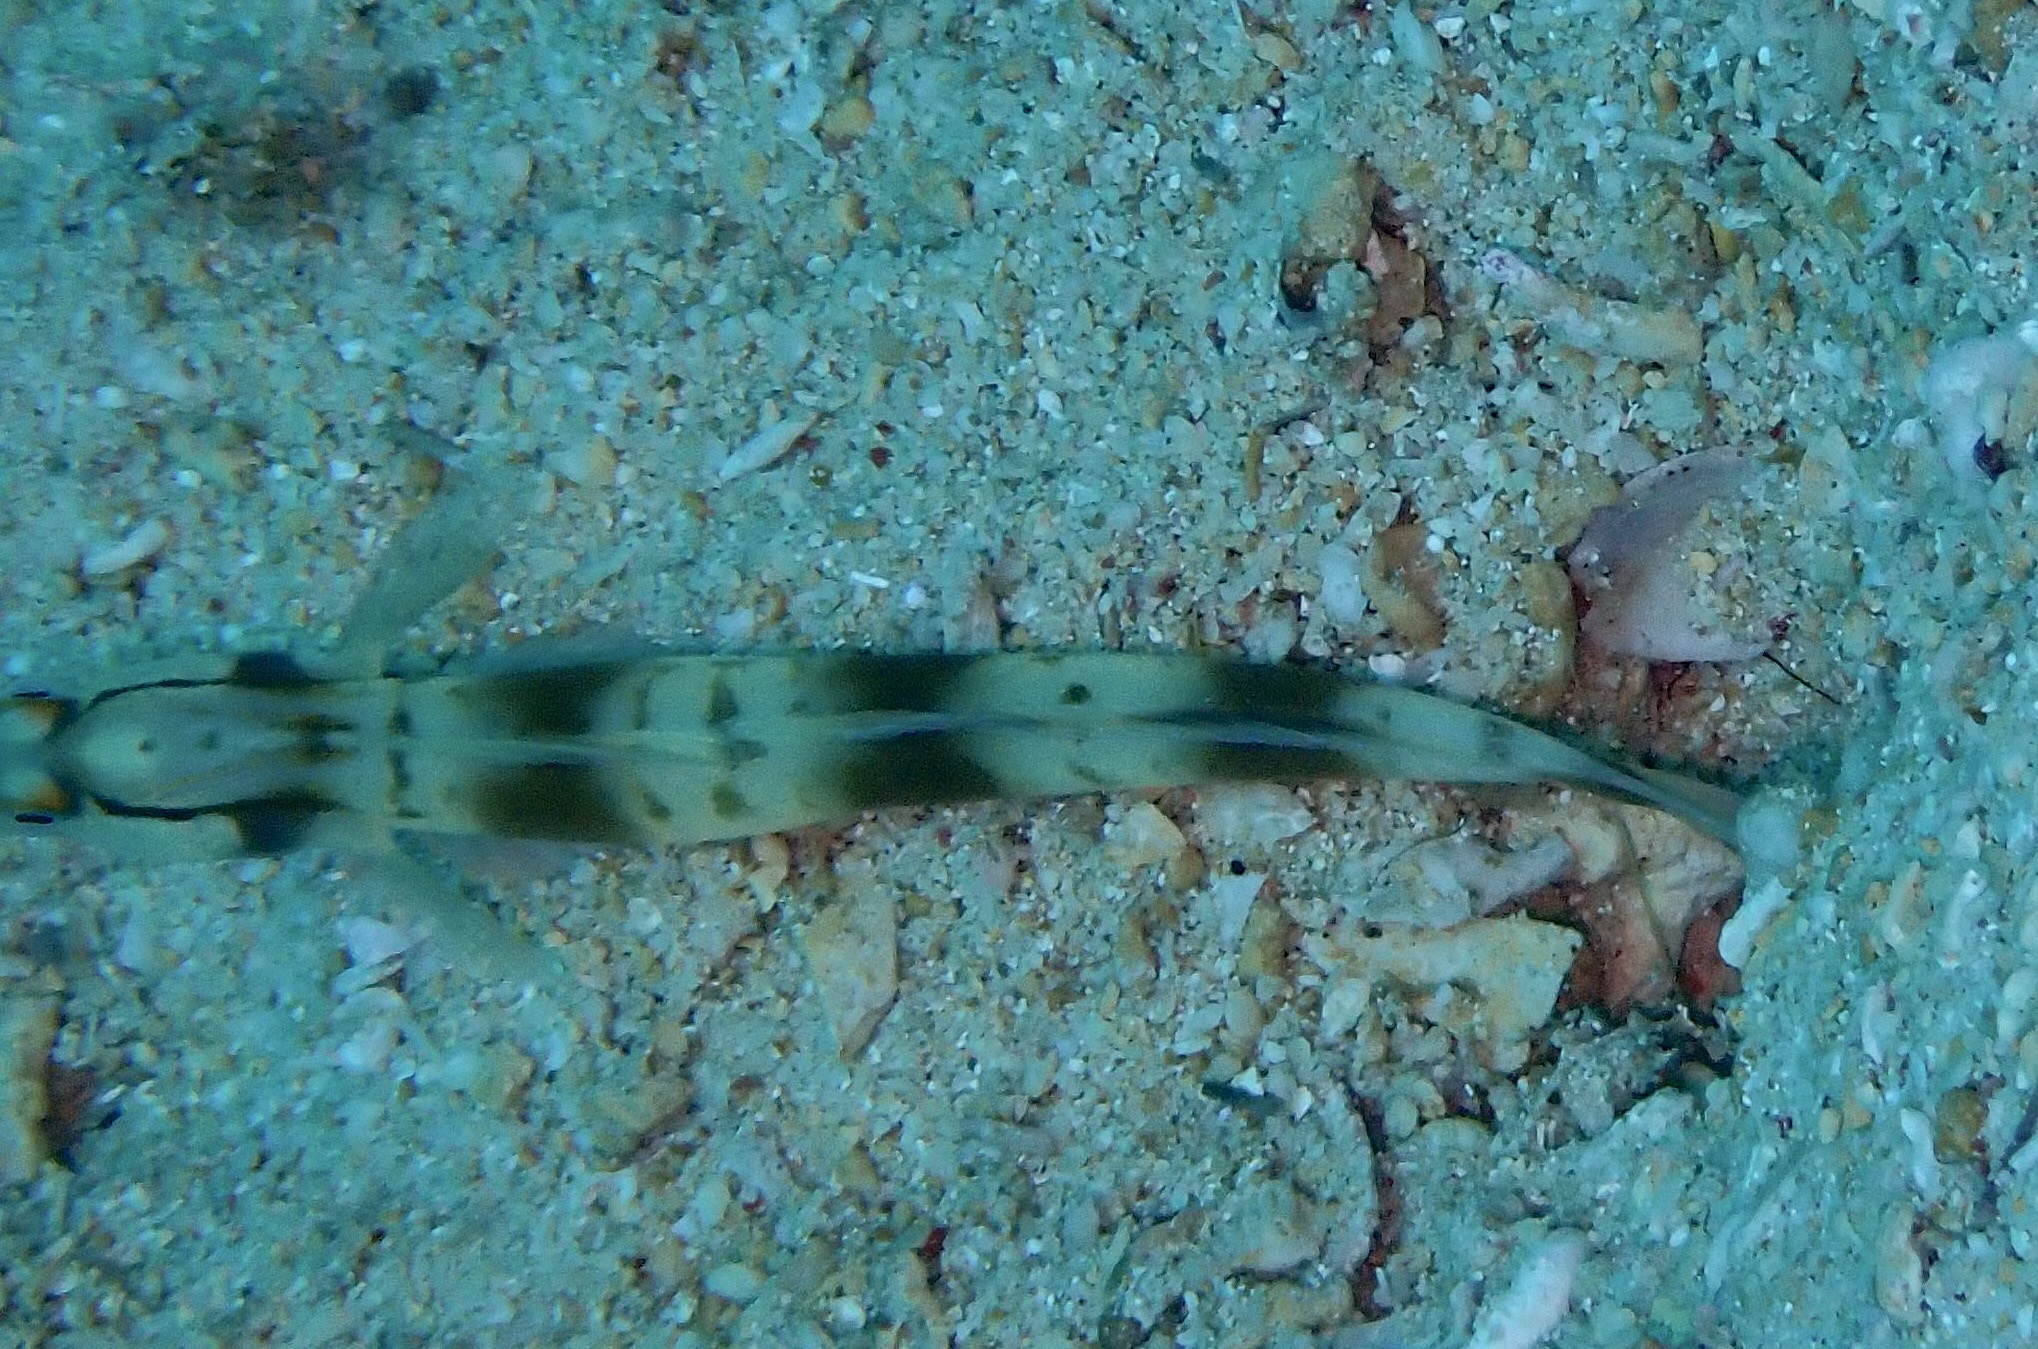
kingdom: Animalia
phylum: Chordata
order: Perciformes
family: Gobiidae
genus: Amblyeleotris
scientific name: Amblyeleotris gymnocephala
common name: Masked shrimpgoby
